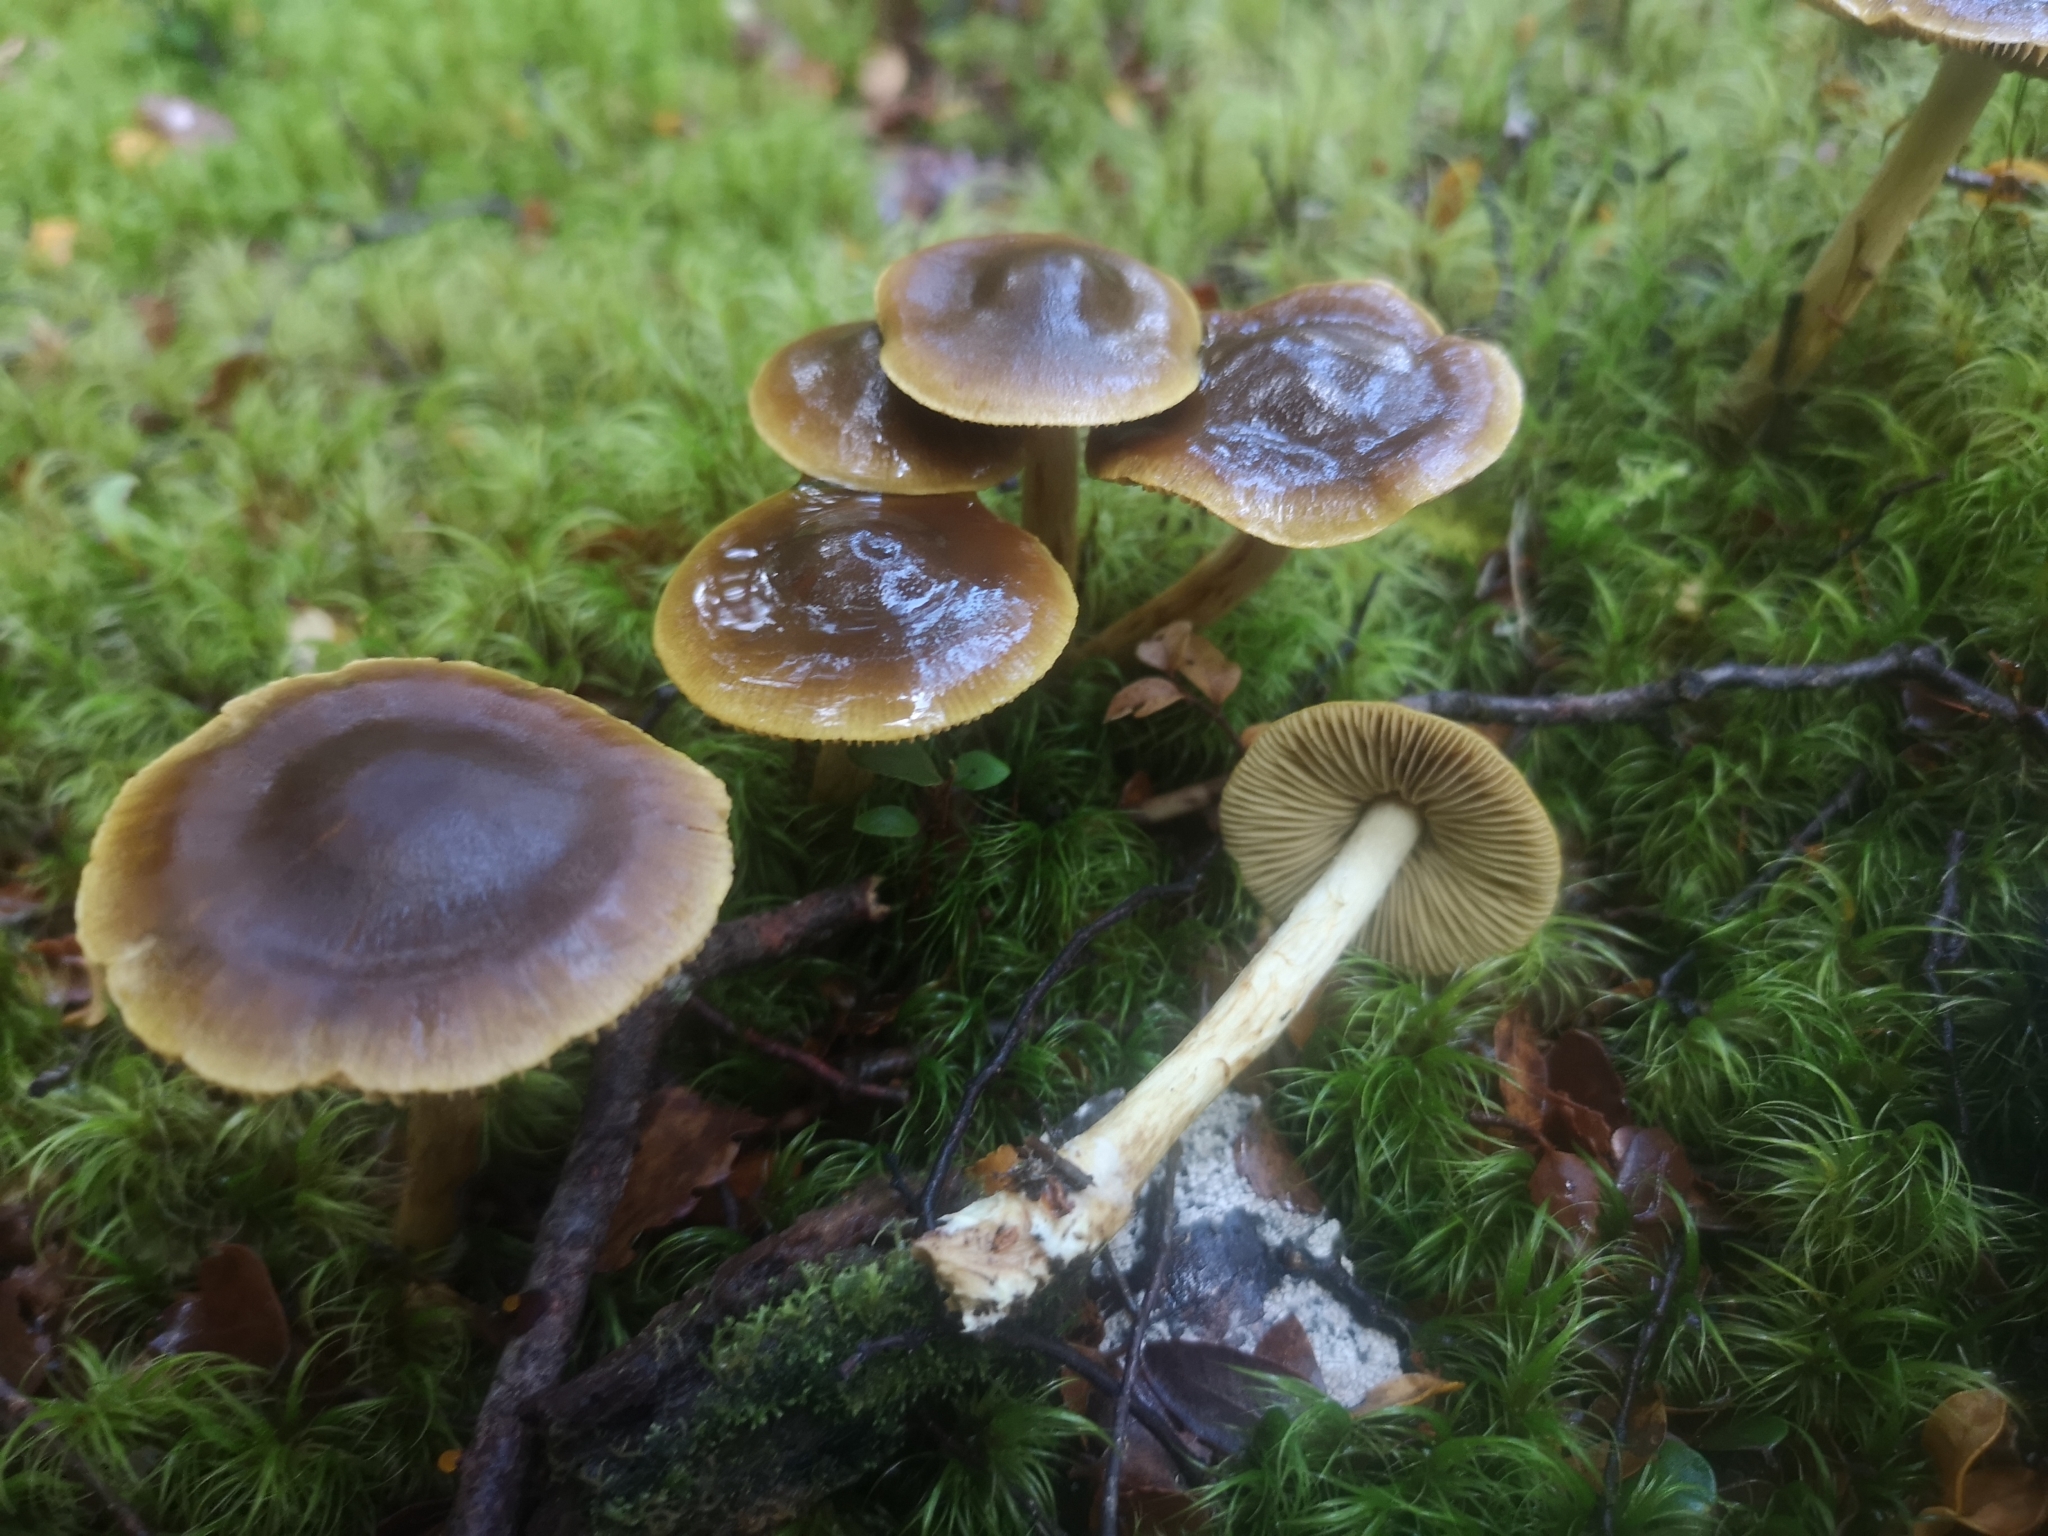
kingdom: Fungi
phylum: Basidiomycota
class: Agaricomycetes
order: Agaricales
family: Cortinariaceae
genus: Cortinarius
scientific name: Cortinarius paraxanthus
